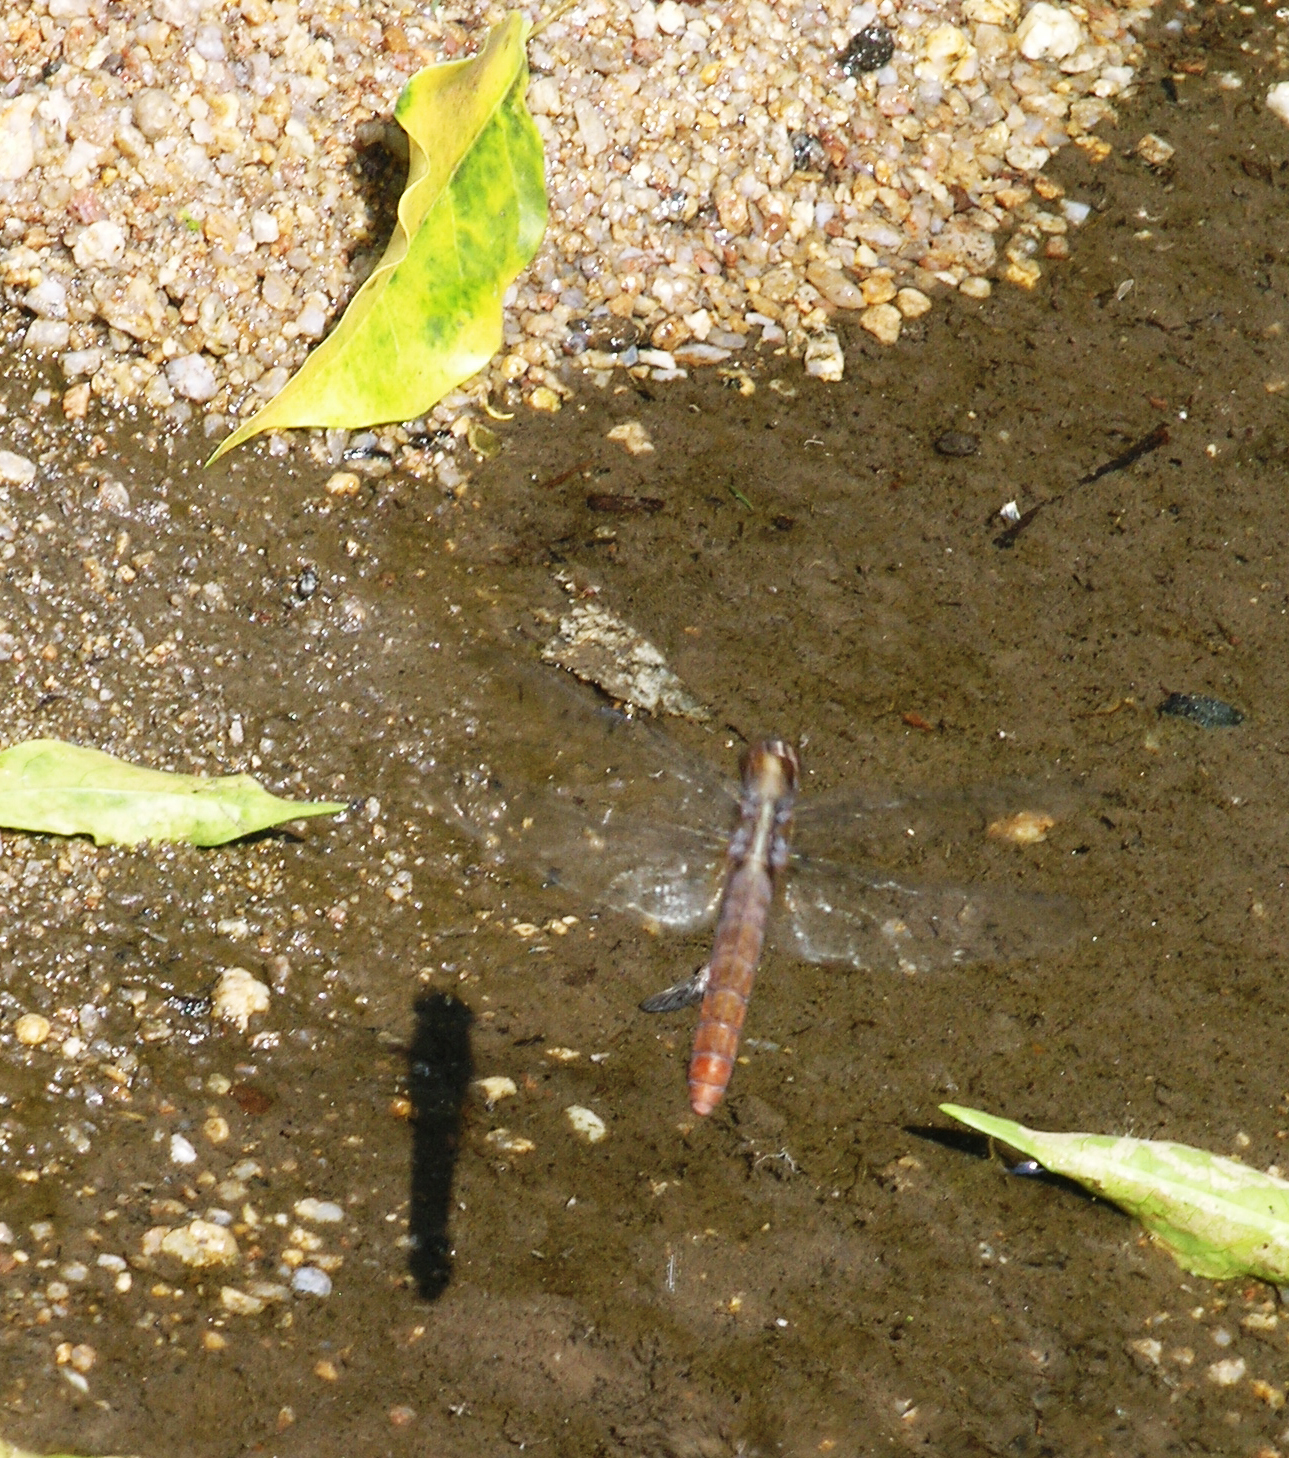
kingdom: Animalia
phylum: Arthropoda
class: Insecta
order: Odonata
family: Libellulidae
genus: Orthetrum
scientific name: Orthetrum chrysis
